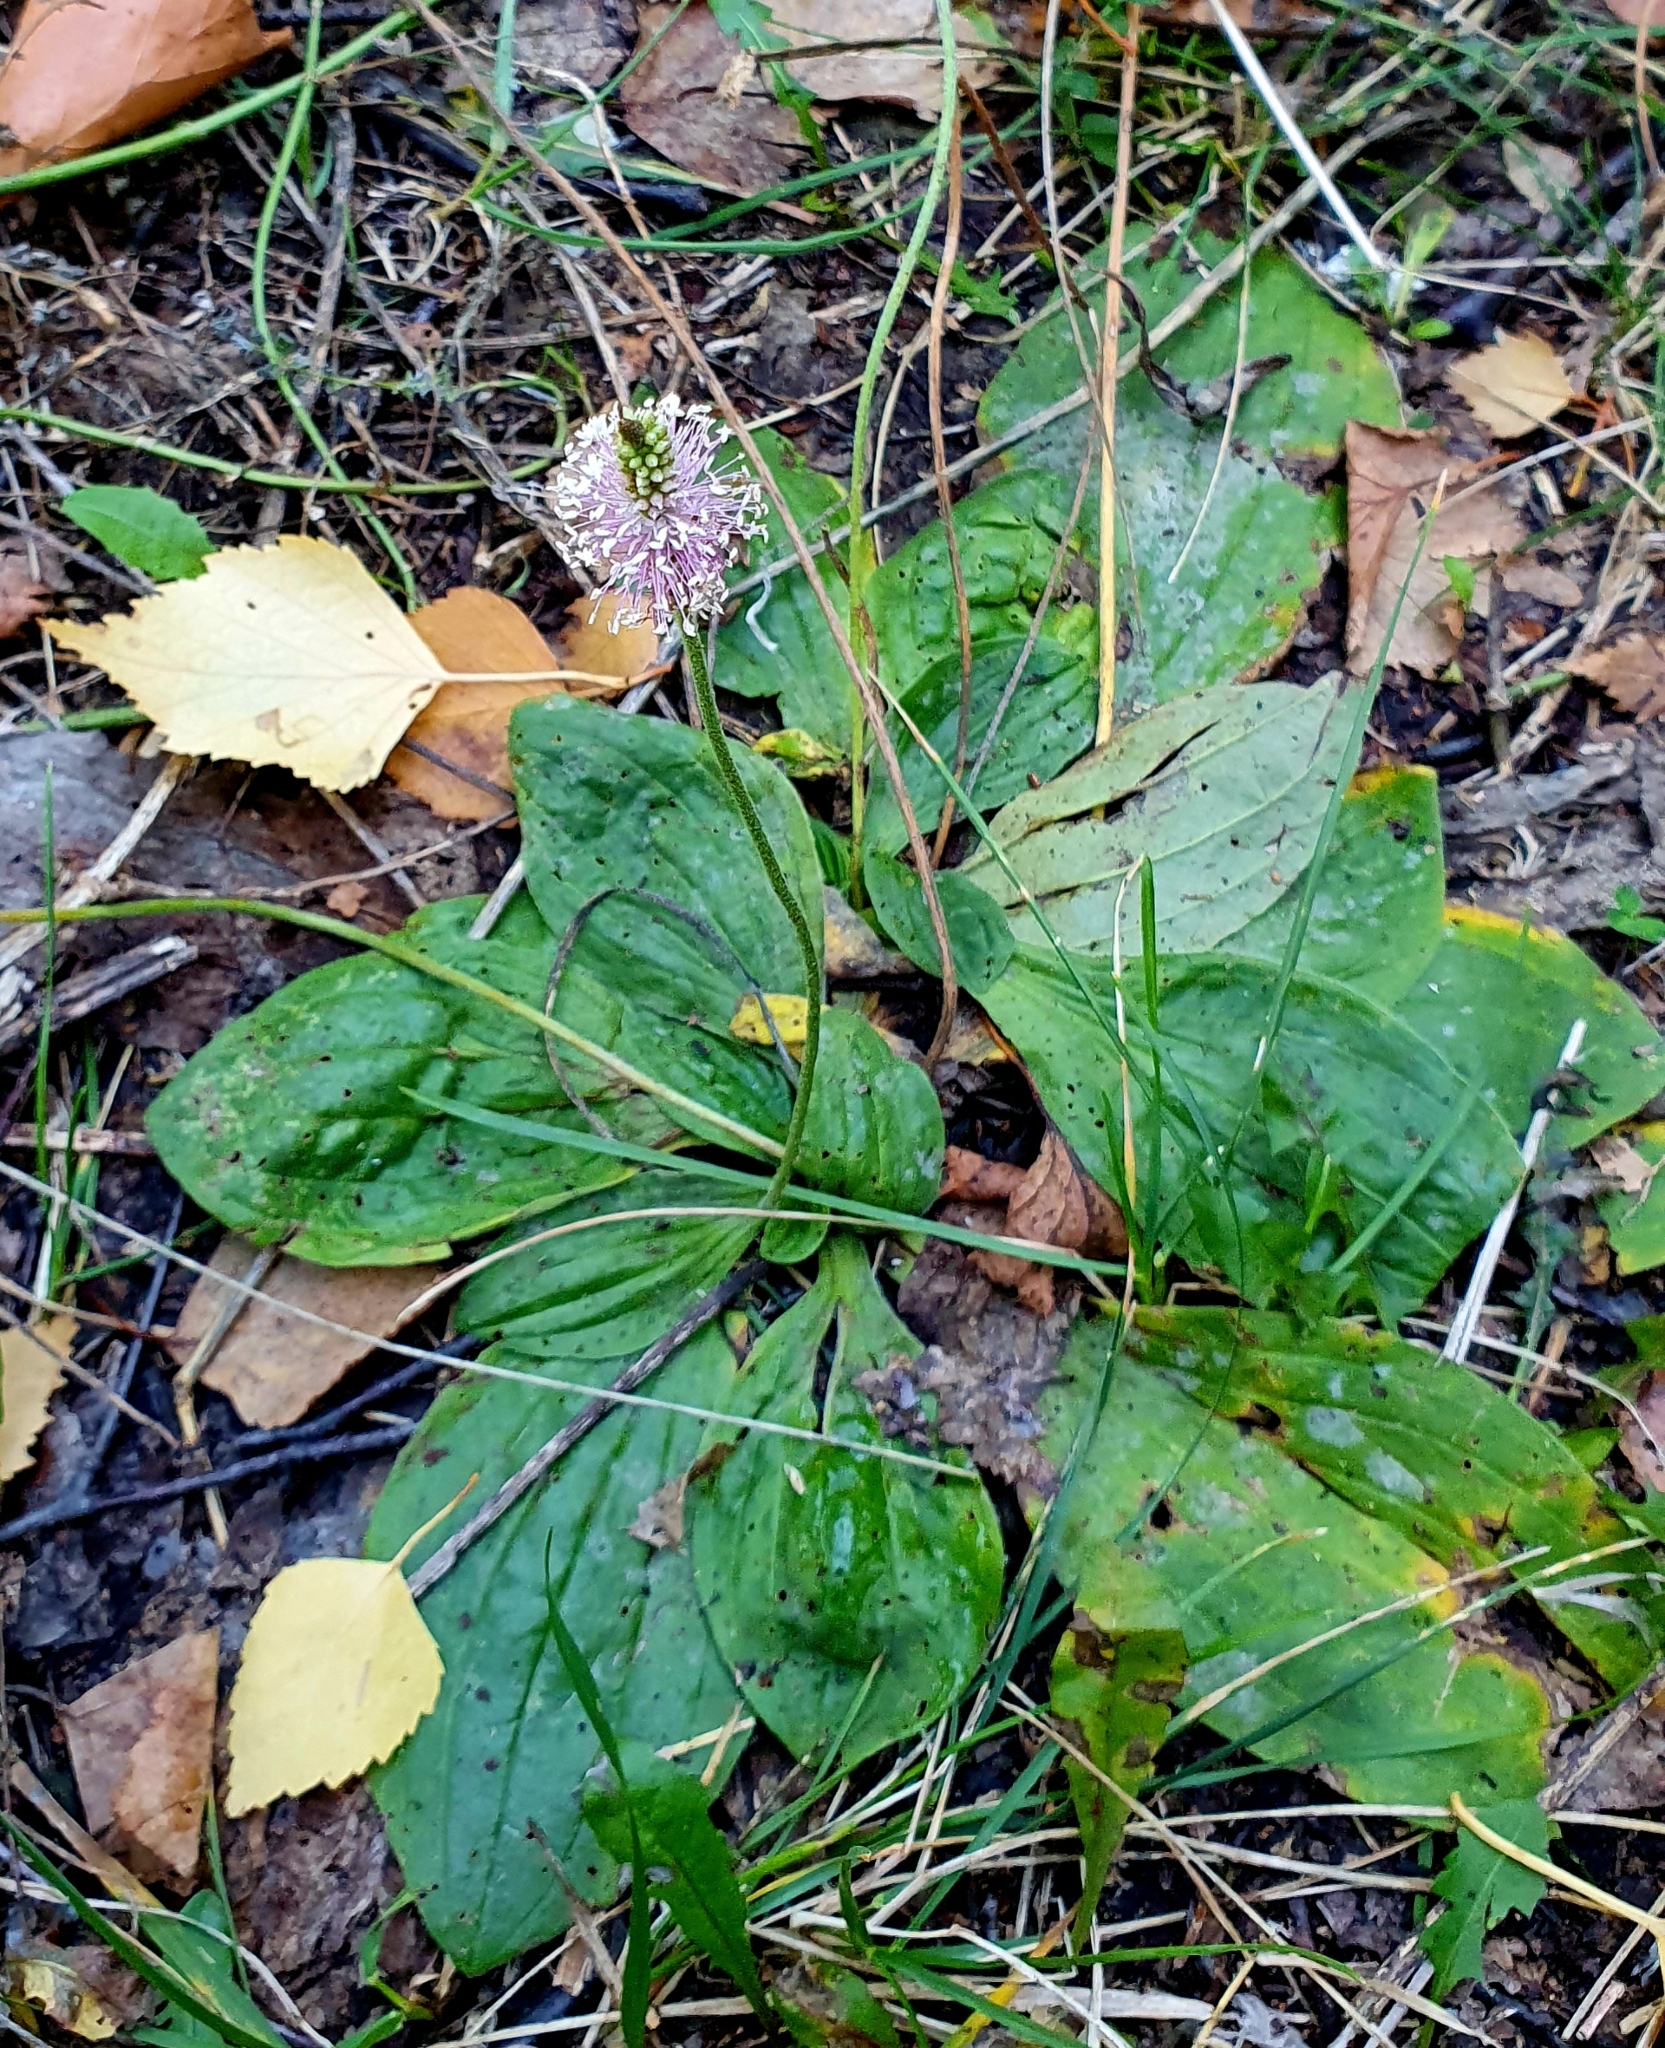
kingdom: Plantae
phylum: Tracheophyta
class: Magnoliopsida
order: Lamiales
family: Plantaginaceae
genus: Plantago
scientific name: Plantago media
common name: Hoary plantain
